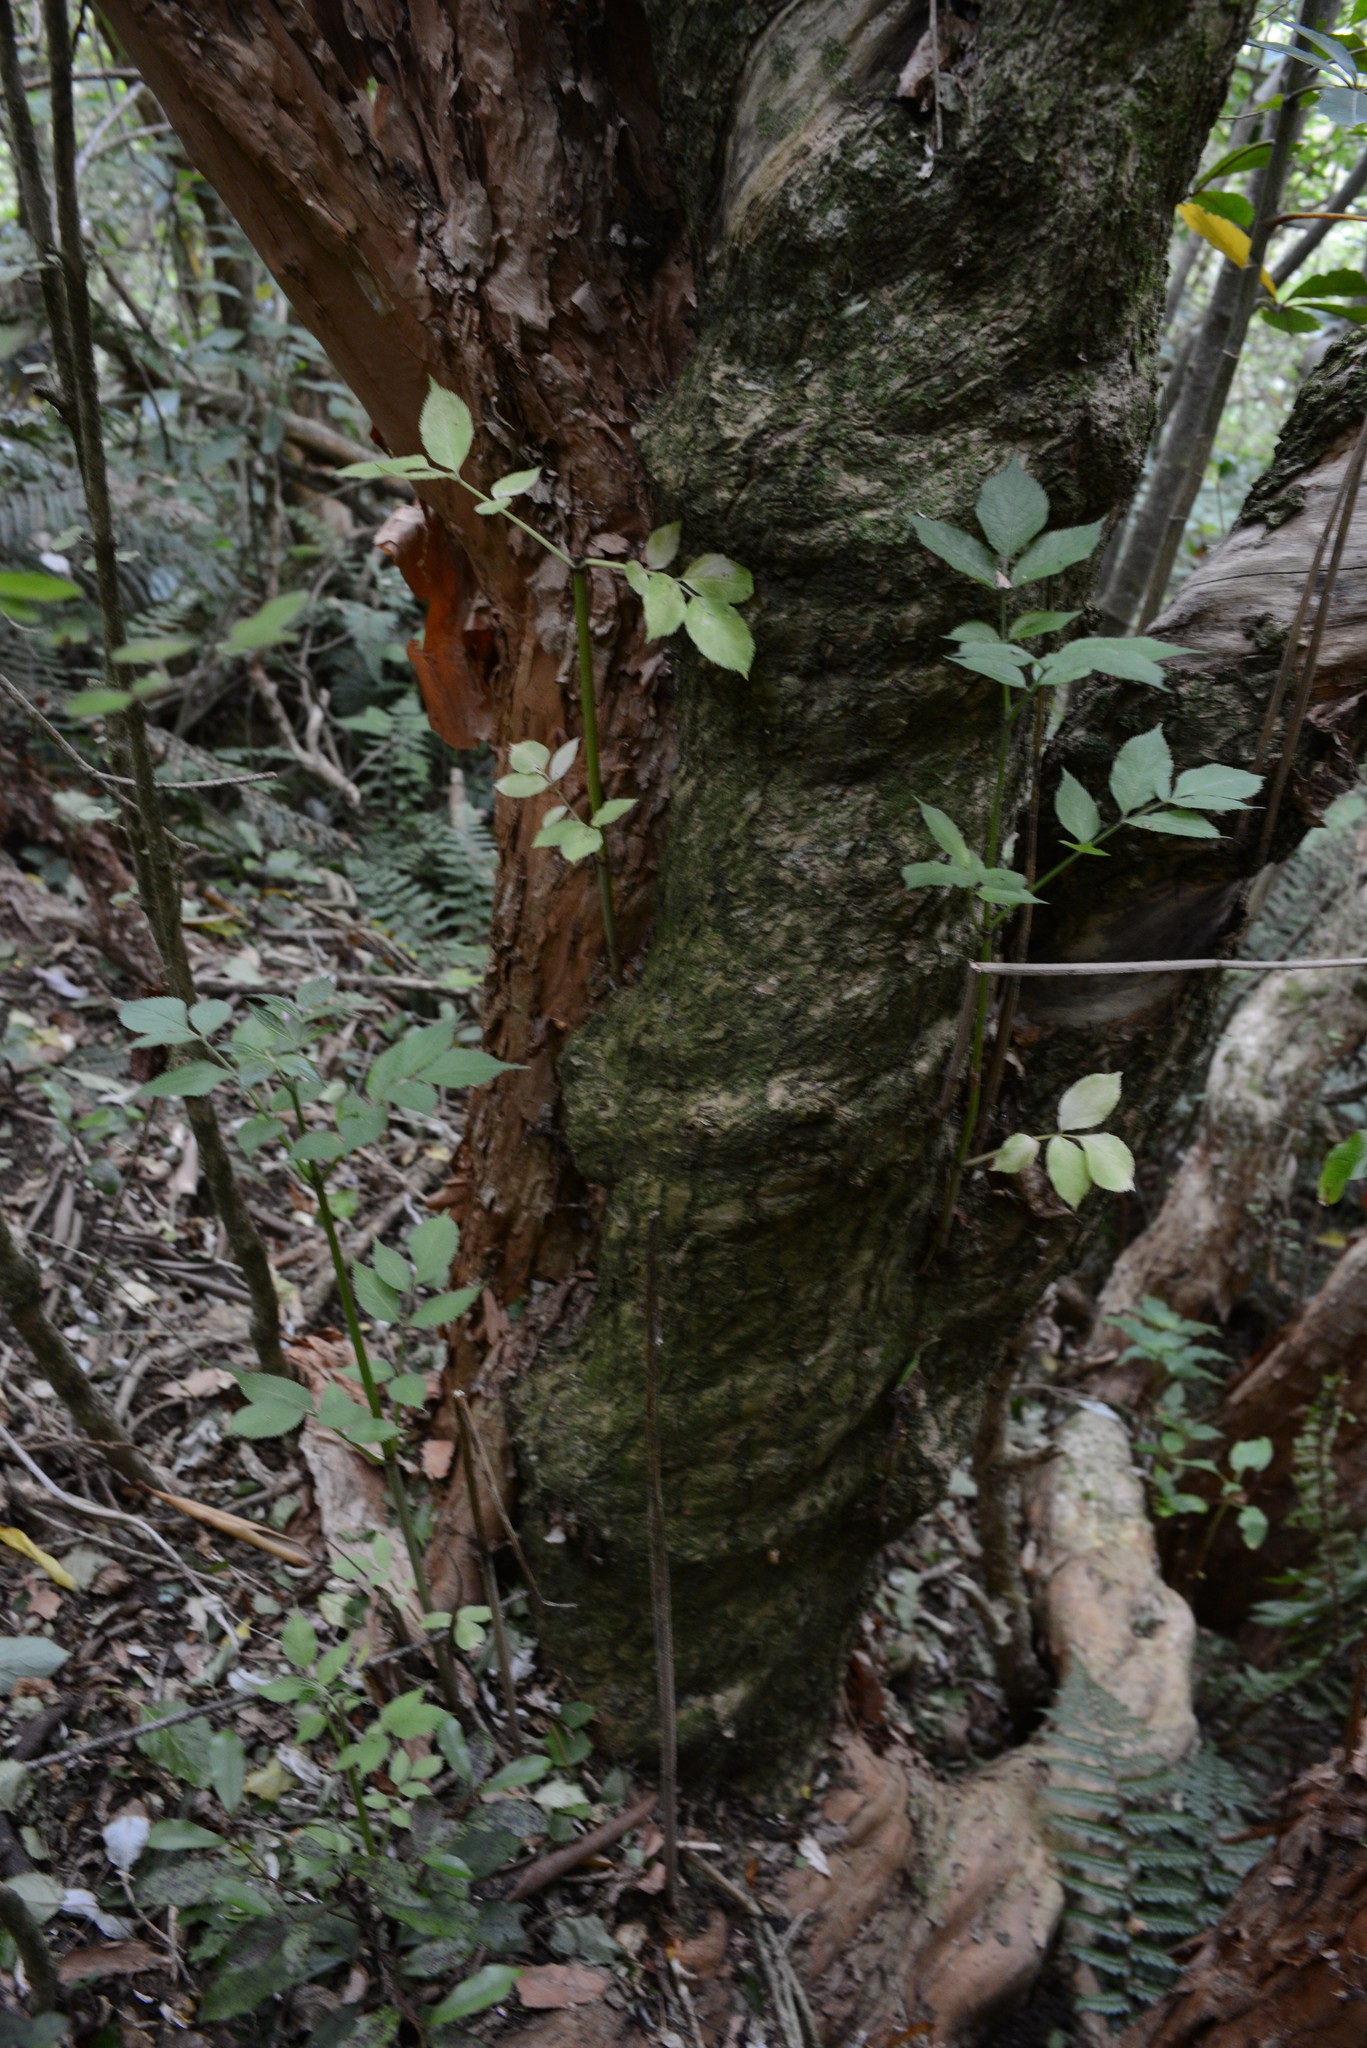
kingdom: Plantae
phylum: Tracheophyta
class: Magnoliopsida
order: Dipsacales
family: Viburnaceae
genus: Sambucus
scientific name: Sambucus nigra
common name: Elder
